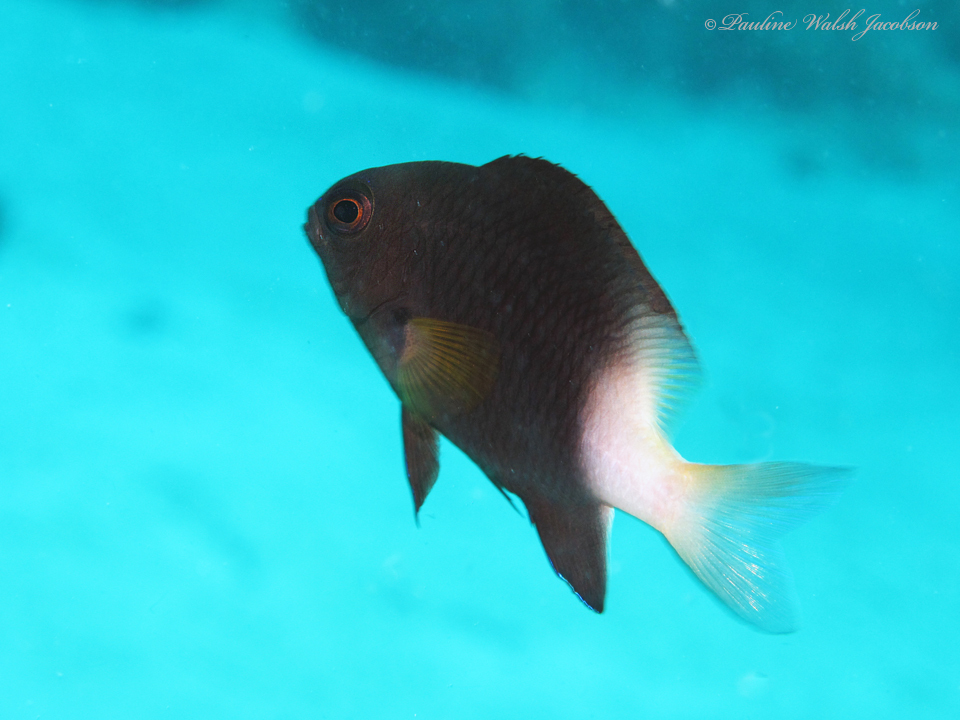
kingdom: Animalia
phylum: Chordata
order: Perciformes
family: Pomacentridae
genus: Stegastes
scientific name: Stegastes partitus
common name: Bicolor damselfish
